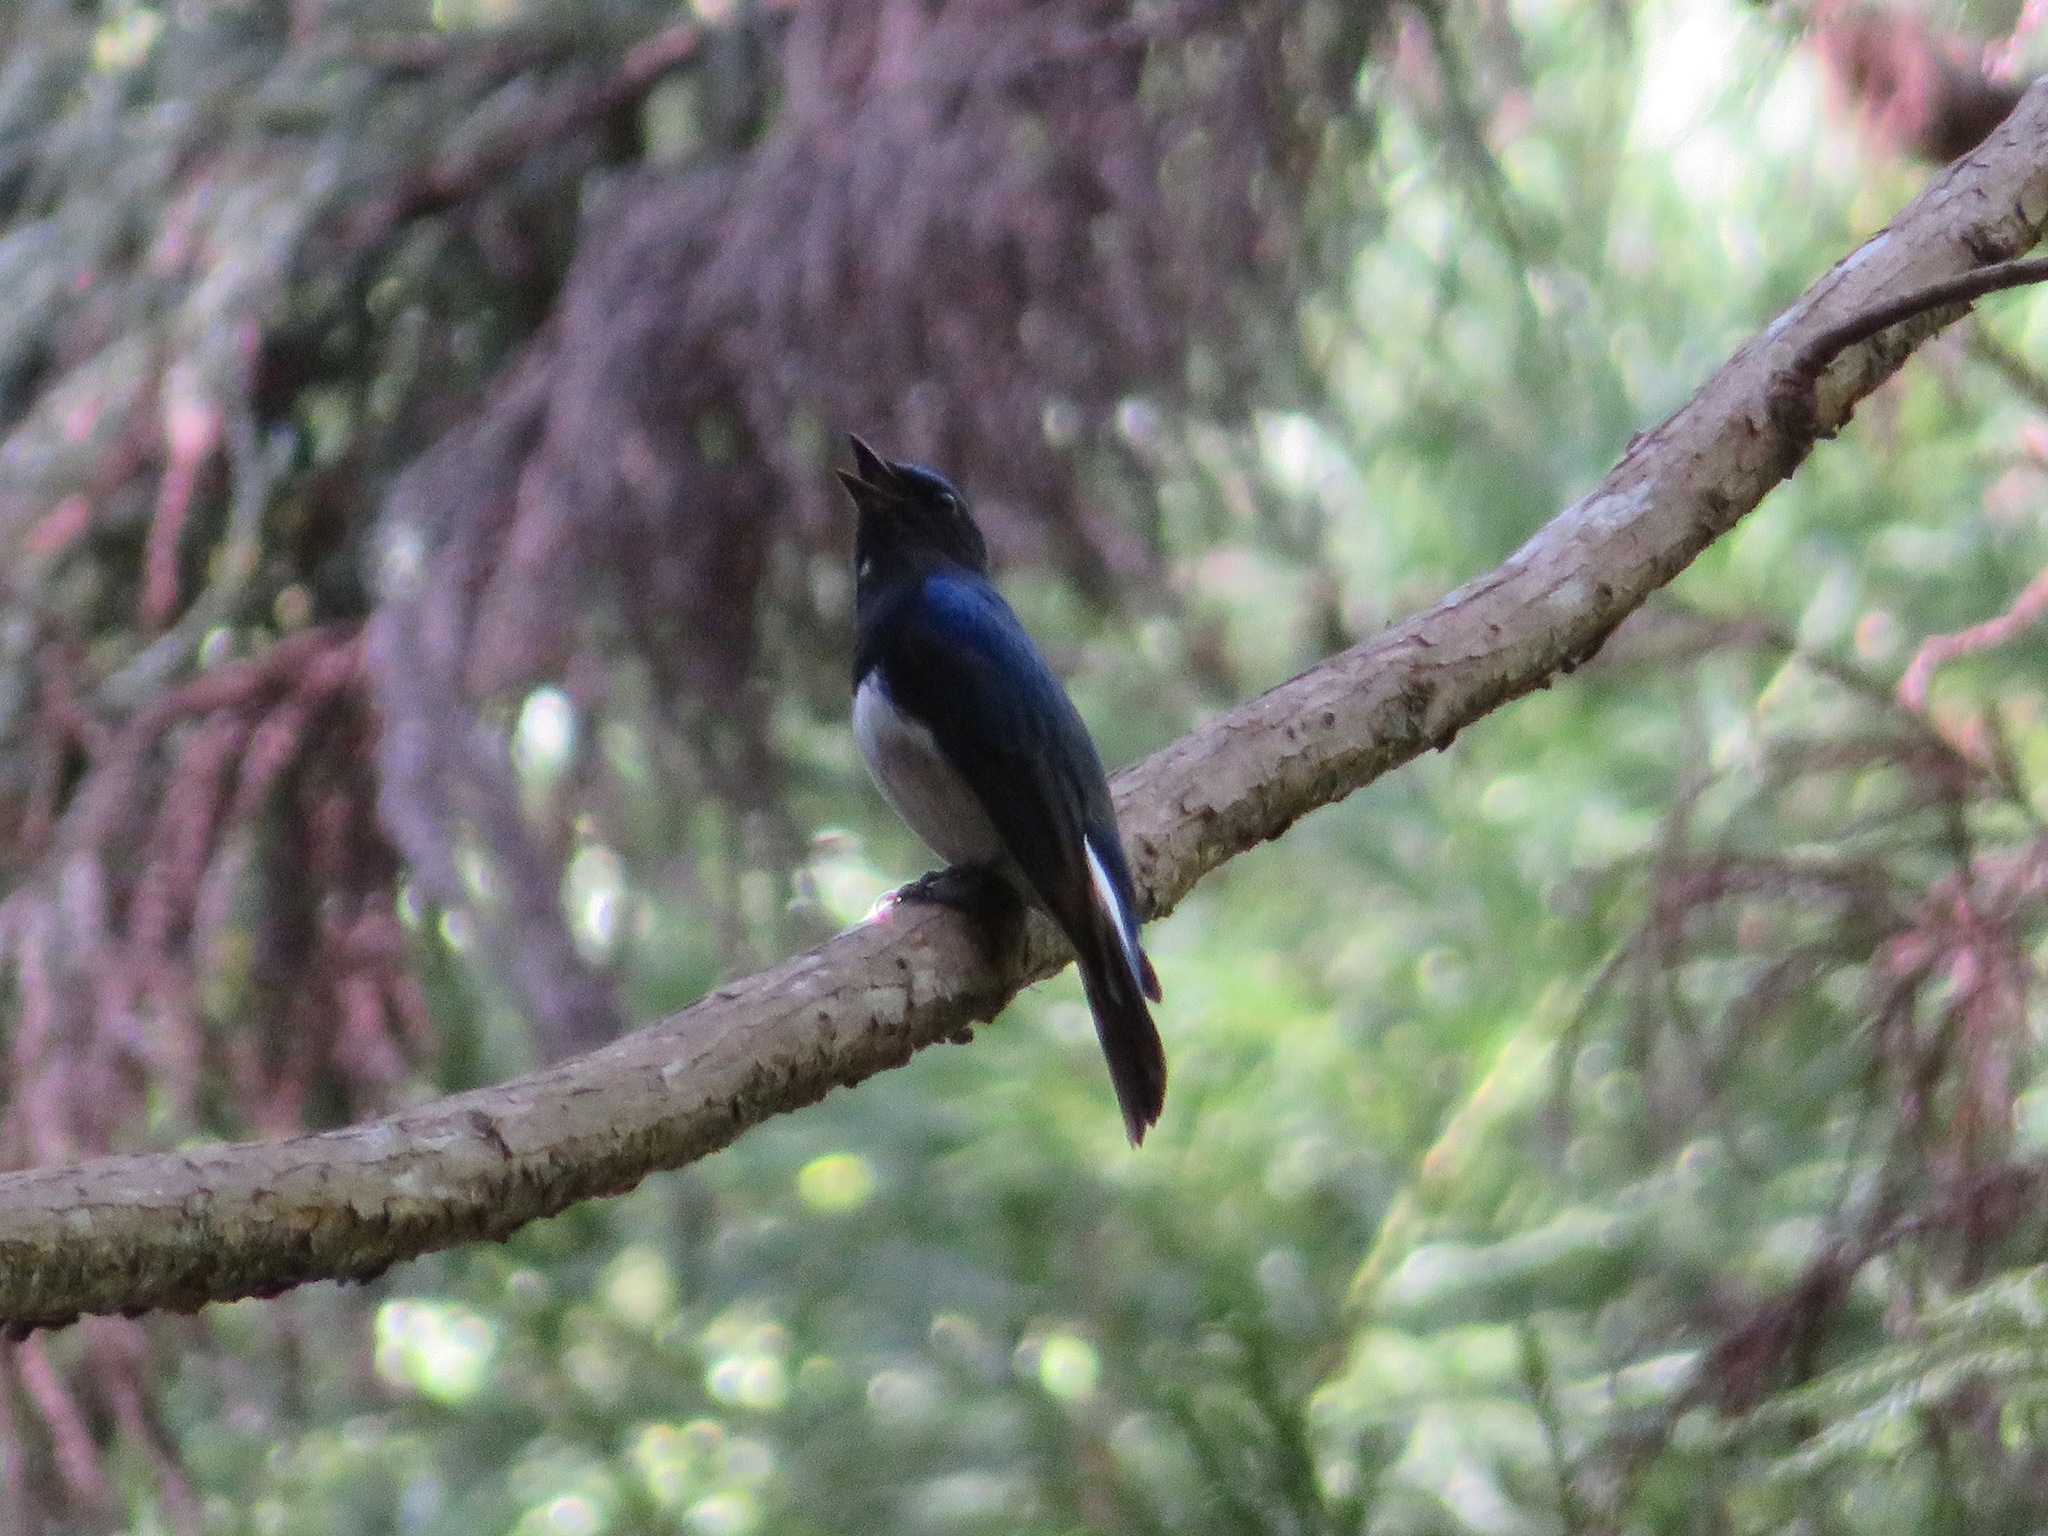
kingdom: Animalia
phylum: Chordata
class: Aves
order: Passeriformes
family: Muscicapidae
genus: Cyanoptila
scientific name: Cyanoptila cyanomelana
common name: Blue-and-white flycatcher
